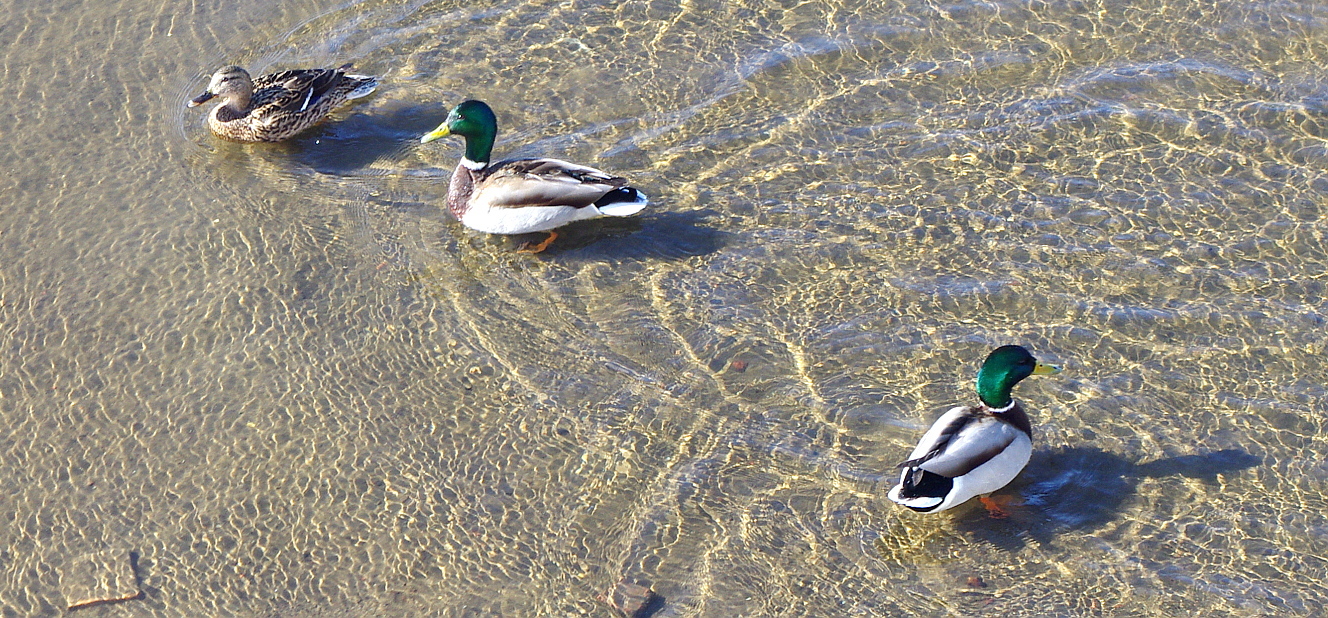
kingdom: Animalia
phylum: Chordata
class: Aves
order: Anseriformes
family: Anatidae
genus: Anas
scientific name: Anas platyrhynchos
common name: Mallard
